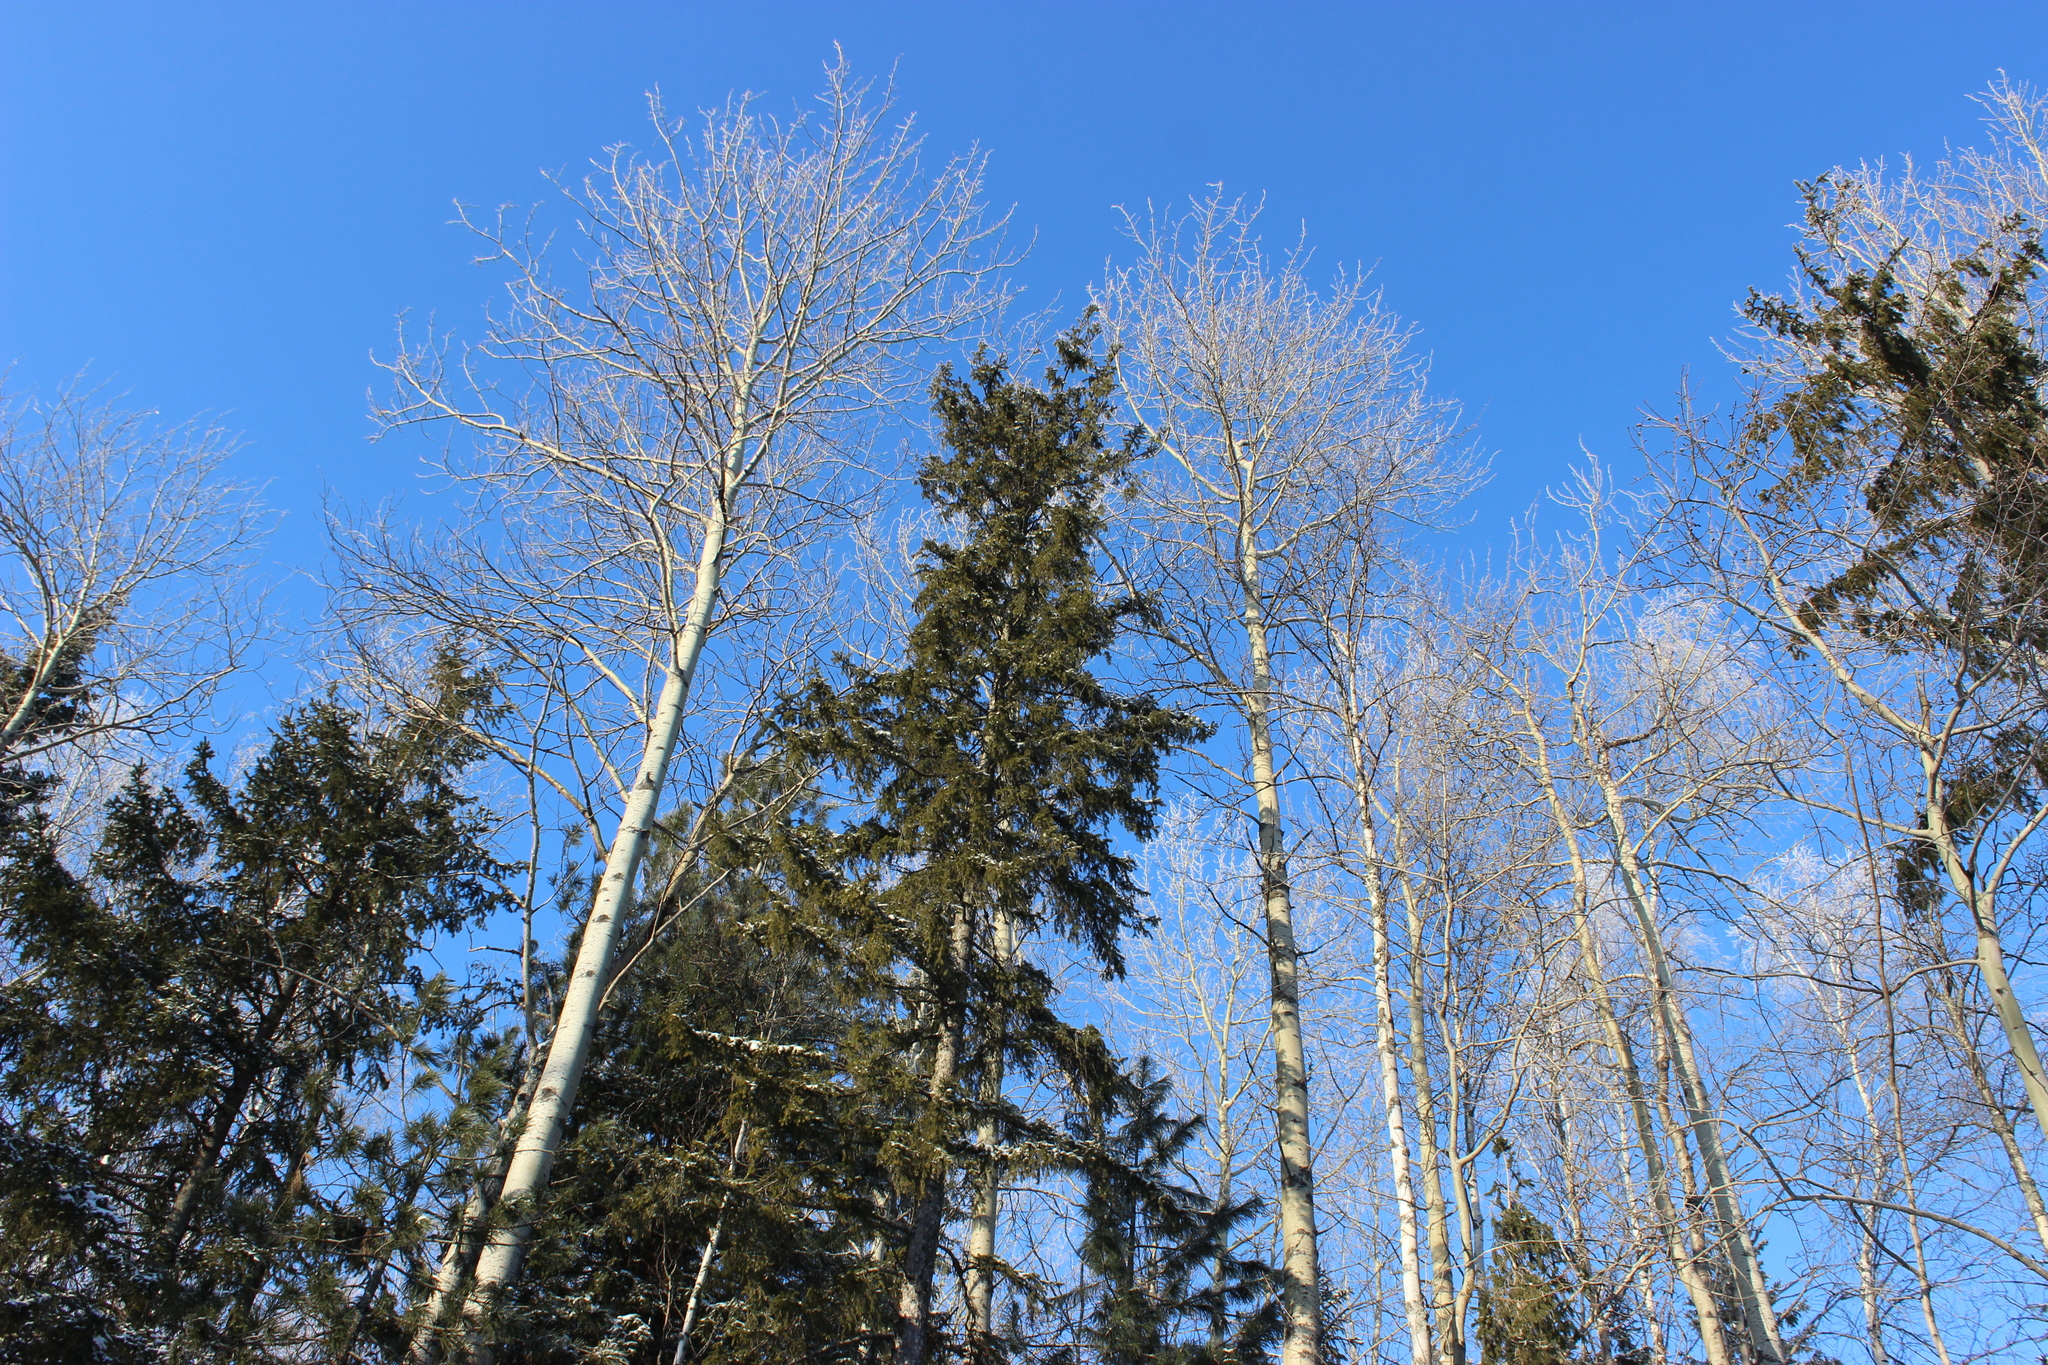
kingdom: Plantae
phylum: Tracheophyta
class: Magnoliopsida
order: Malpighiales
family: Salicaceae
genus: Populus
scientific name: Populus tremula
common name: European aspen
